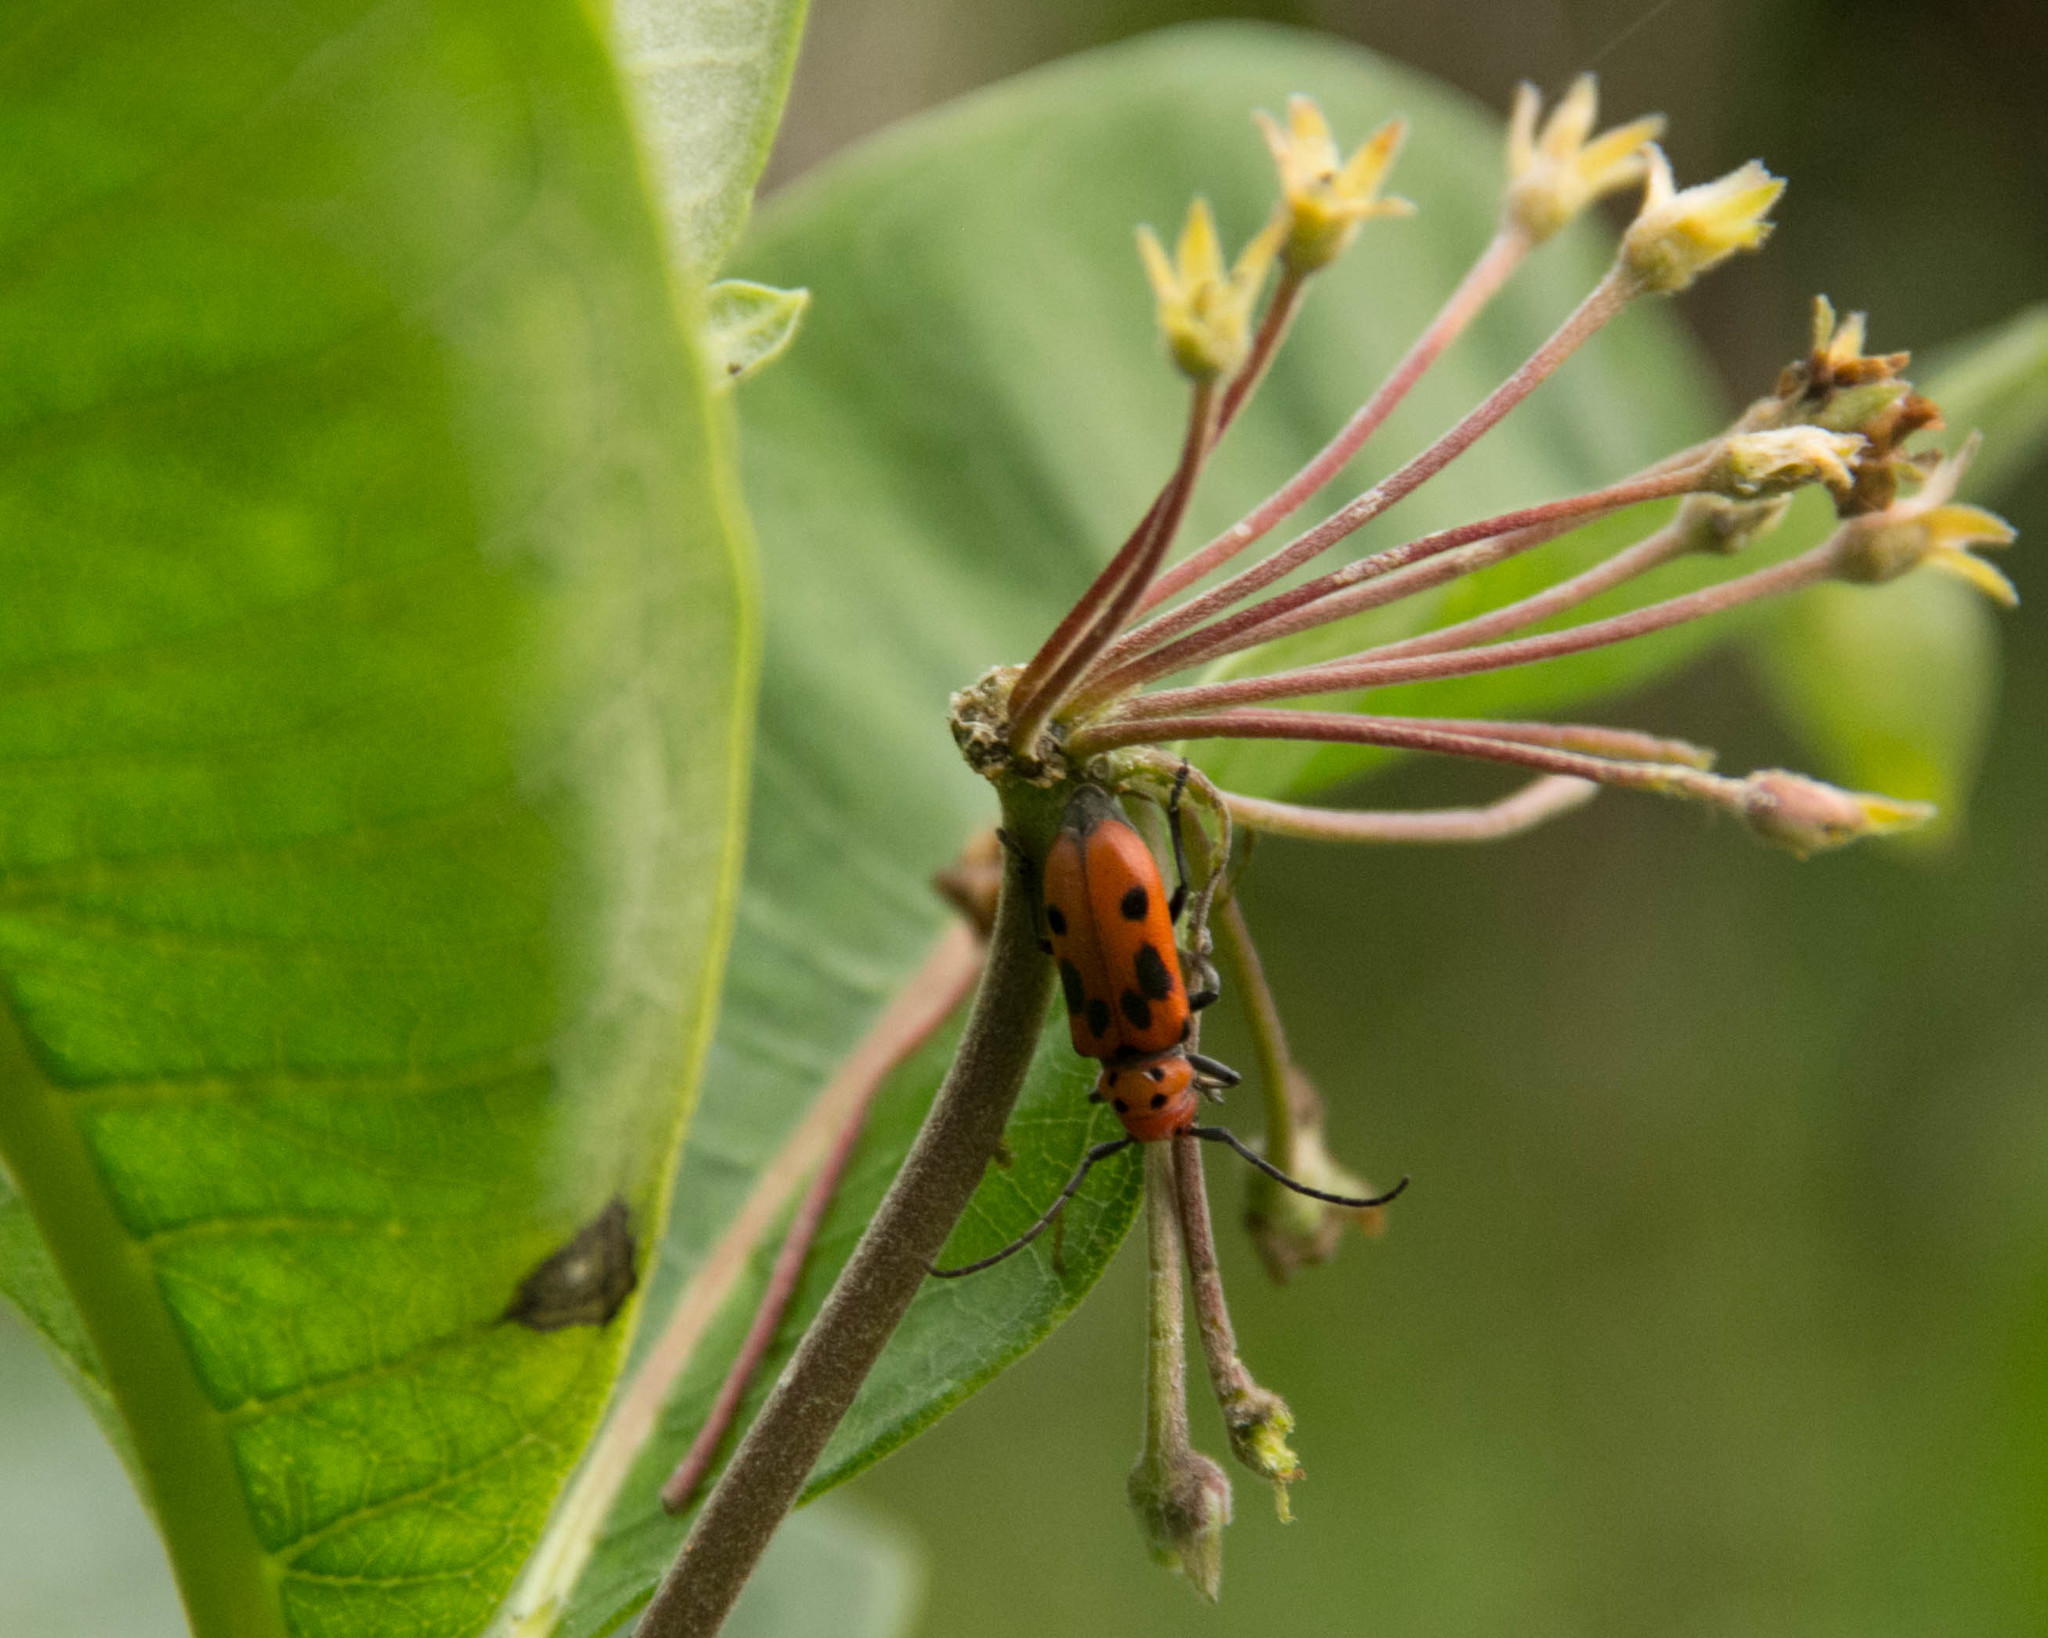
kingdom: Animalia
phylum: Arthropoda
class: Insecta
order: Coleoptera
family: Cerambycidae
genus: Tetraopes
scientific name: Tetraopes tetrophthalmus
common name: Red milkweed beetle
